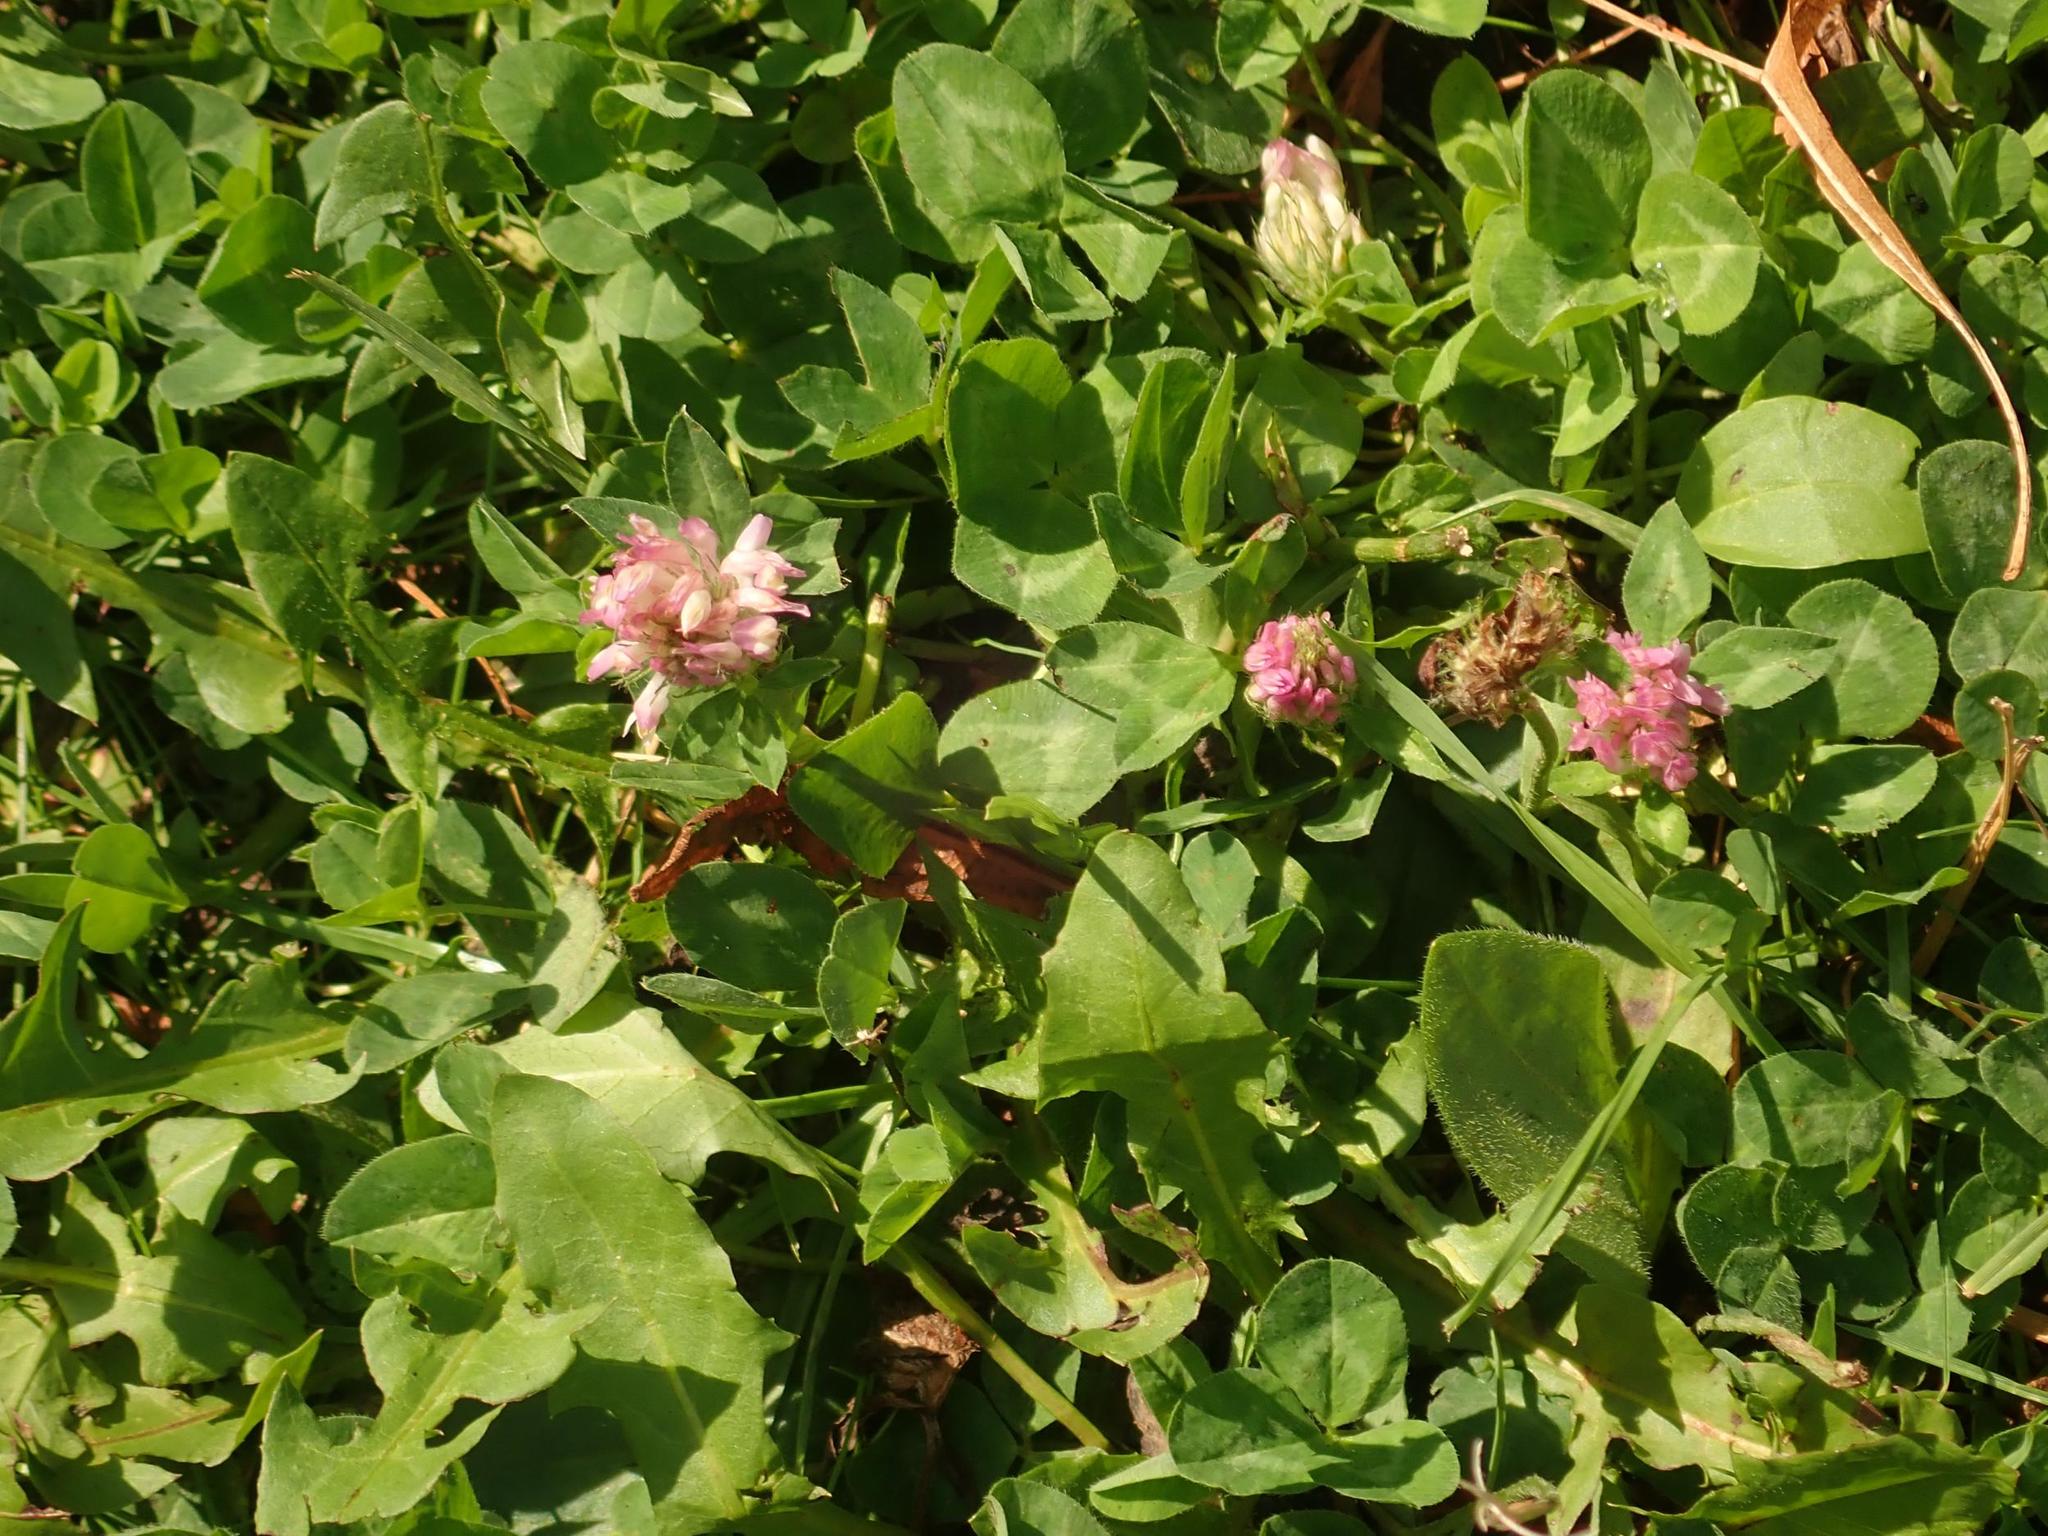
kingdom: Plantae
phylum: Tracheophyta
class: Magnoliopsida
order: Fabales
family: Fabaceae
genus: Trifolium
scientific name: Trifolium pratense
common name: Red clover
